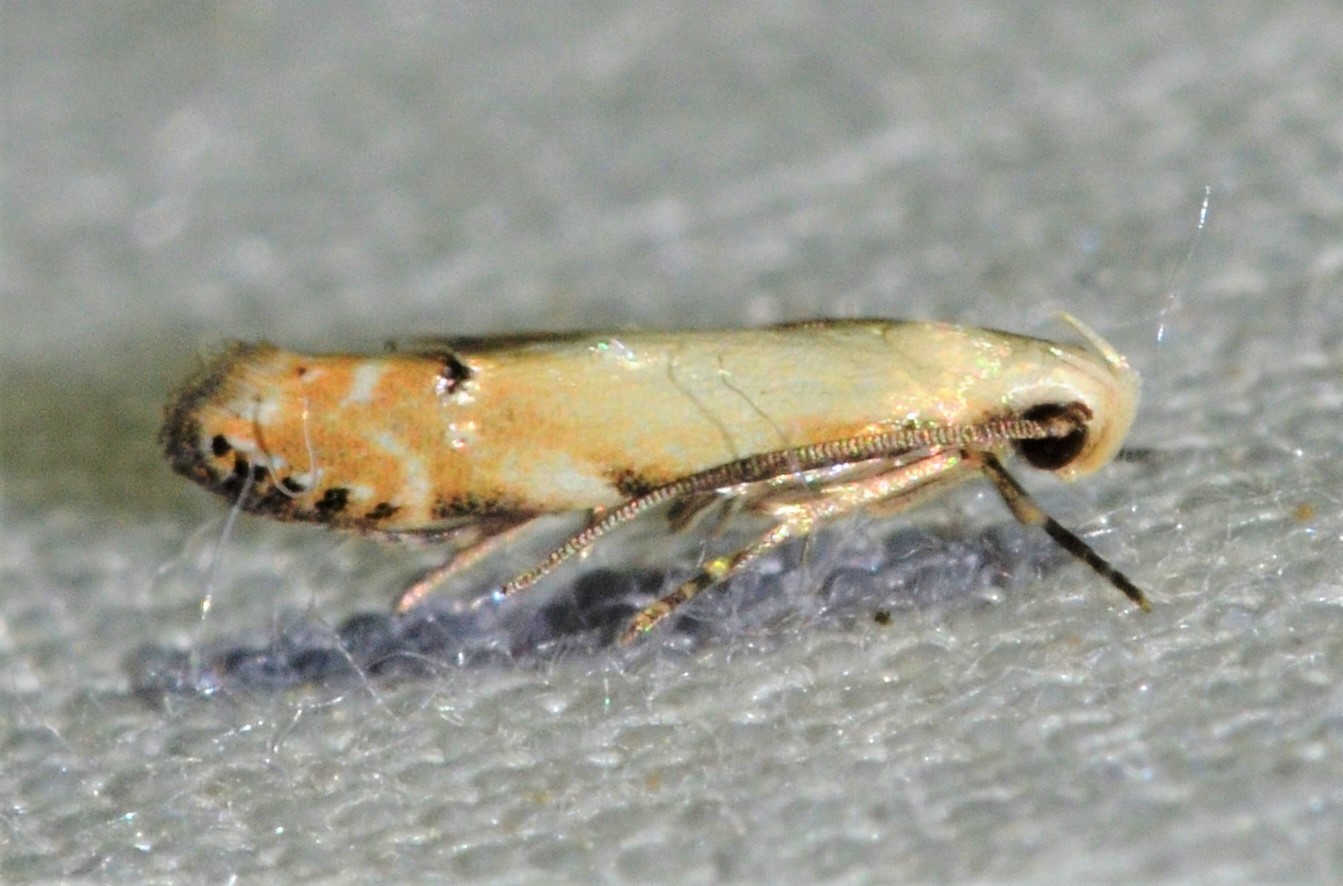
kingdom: Animalia
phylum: Arthropoda
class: Insecta
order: Lepidoptera
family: Gelechiidae
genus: Coleotechnites
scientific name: Coleotechnites variiella
